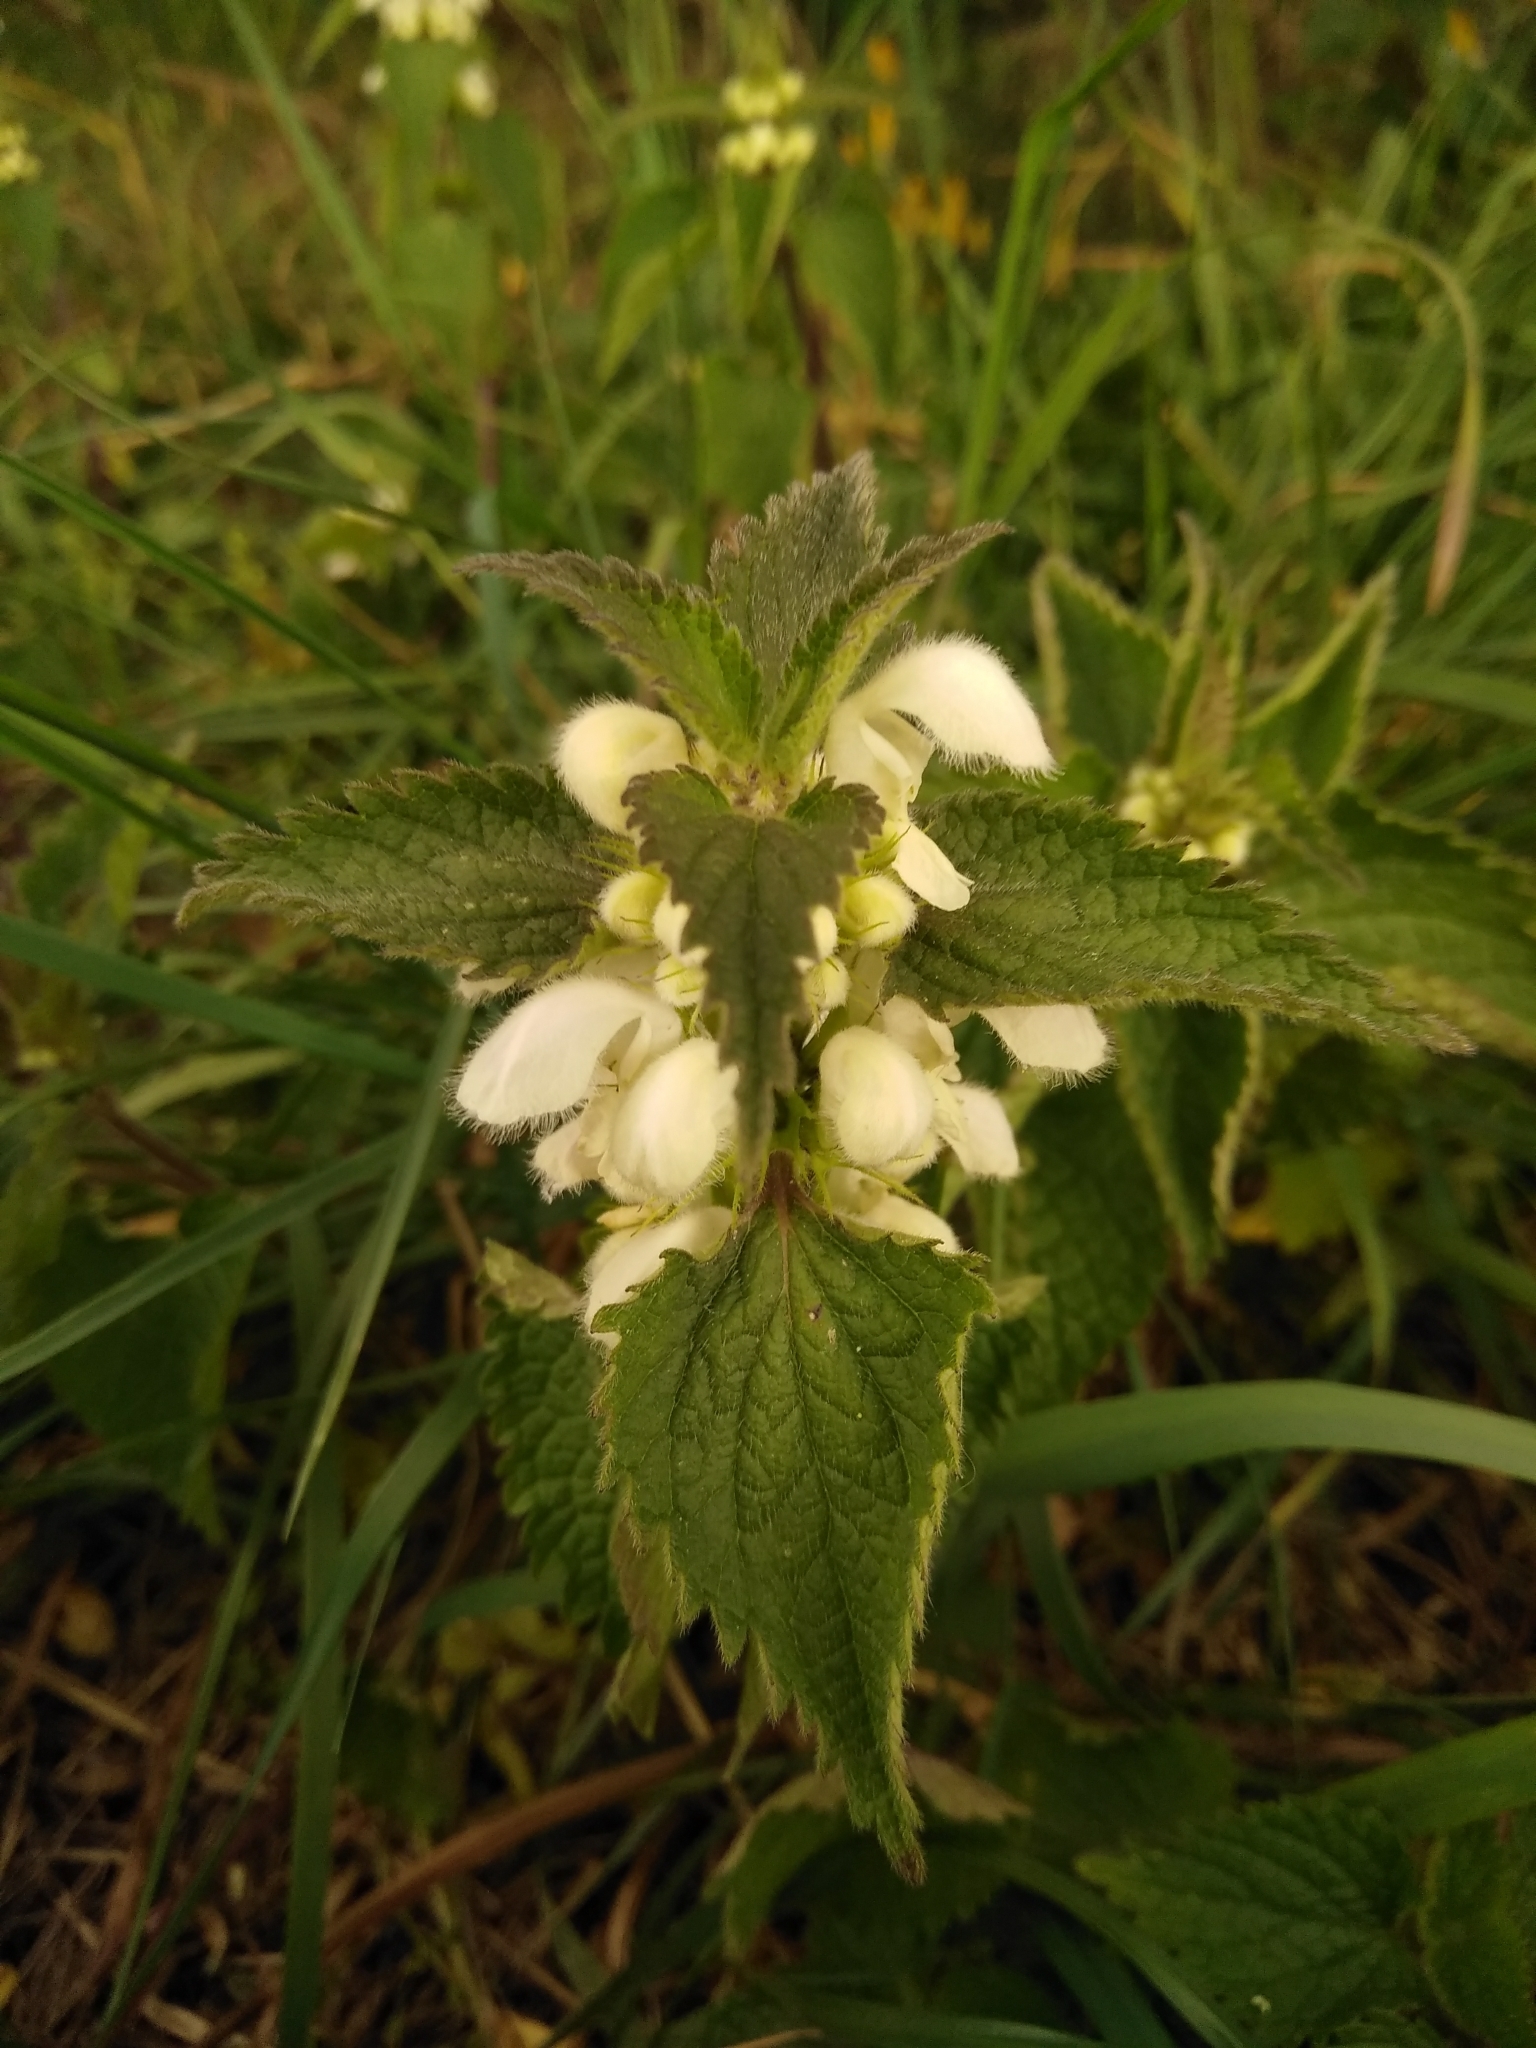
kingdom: Plantae
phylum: Tracheophyta
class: Magnoliopsida
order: Lamiales
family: Lamiaceae
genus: Lamium
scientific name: Lamium album
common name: White dead-nettle
